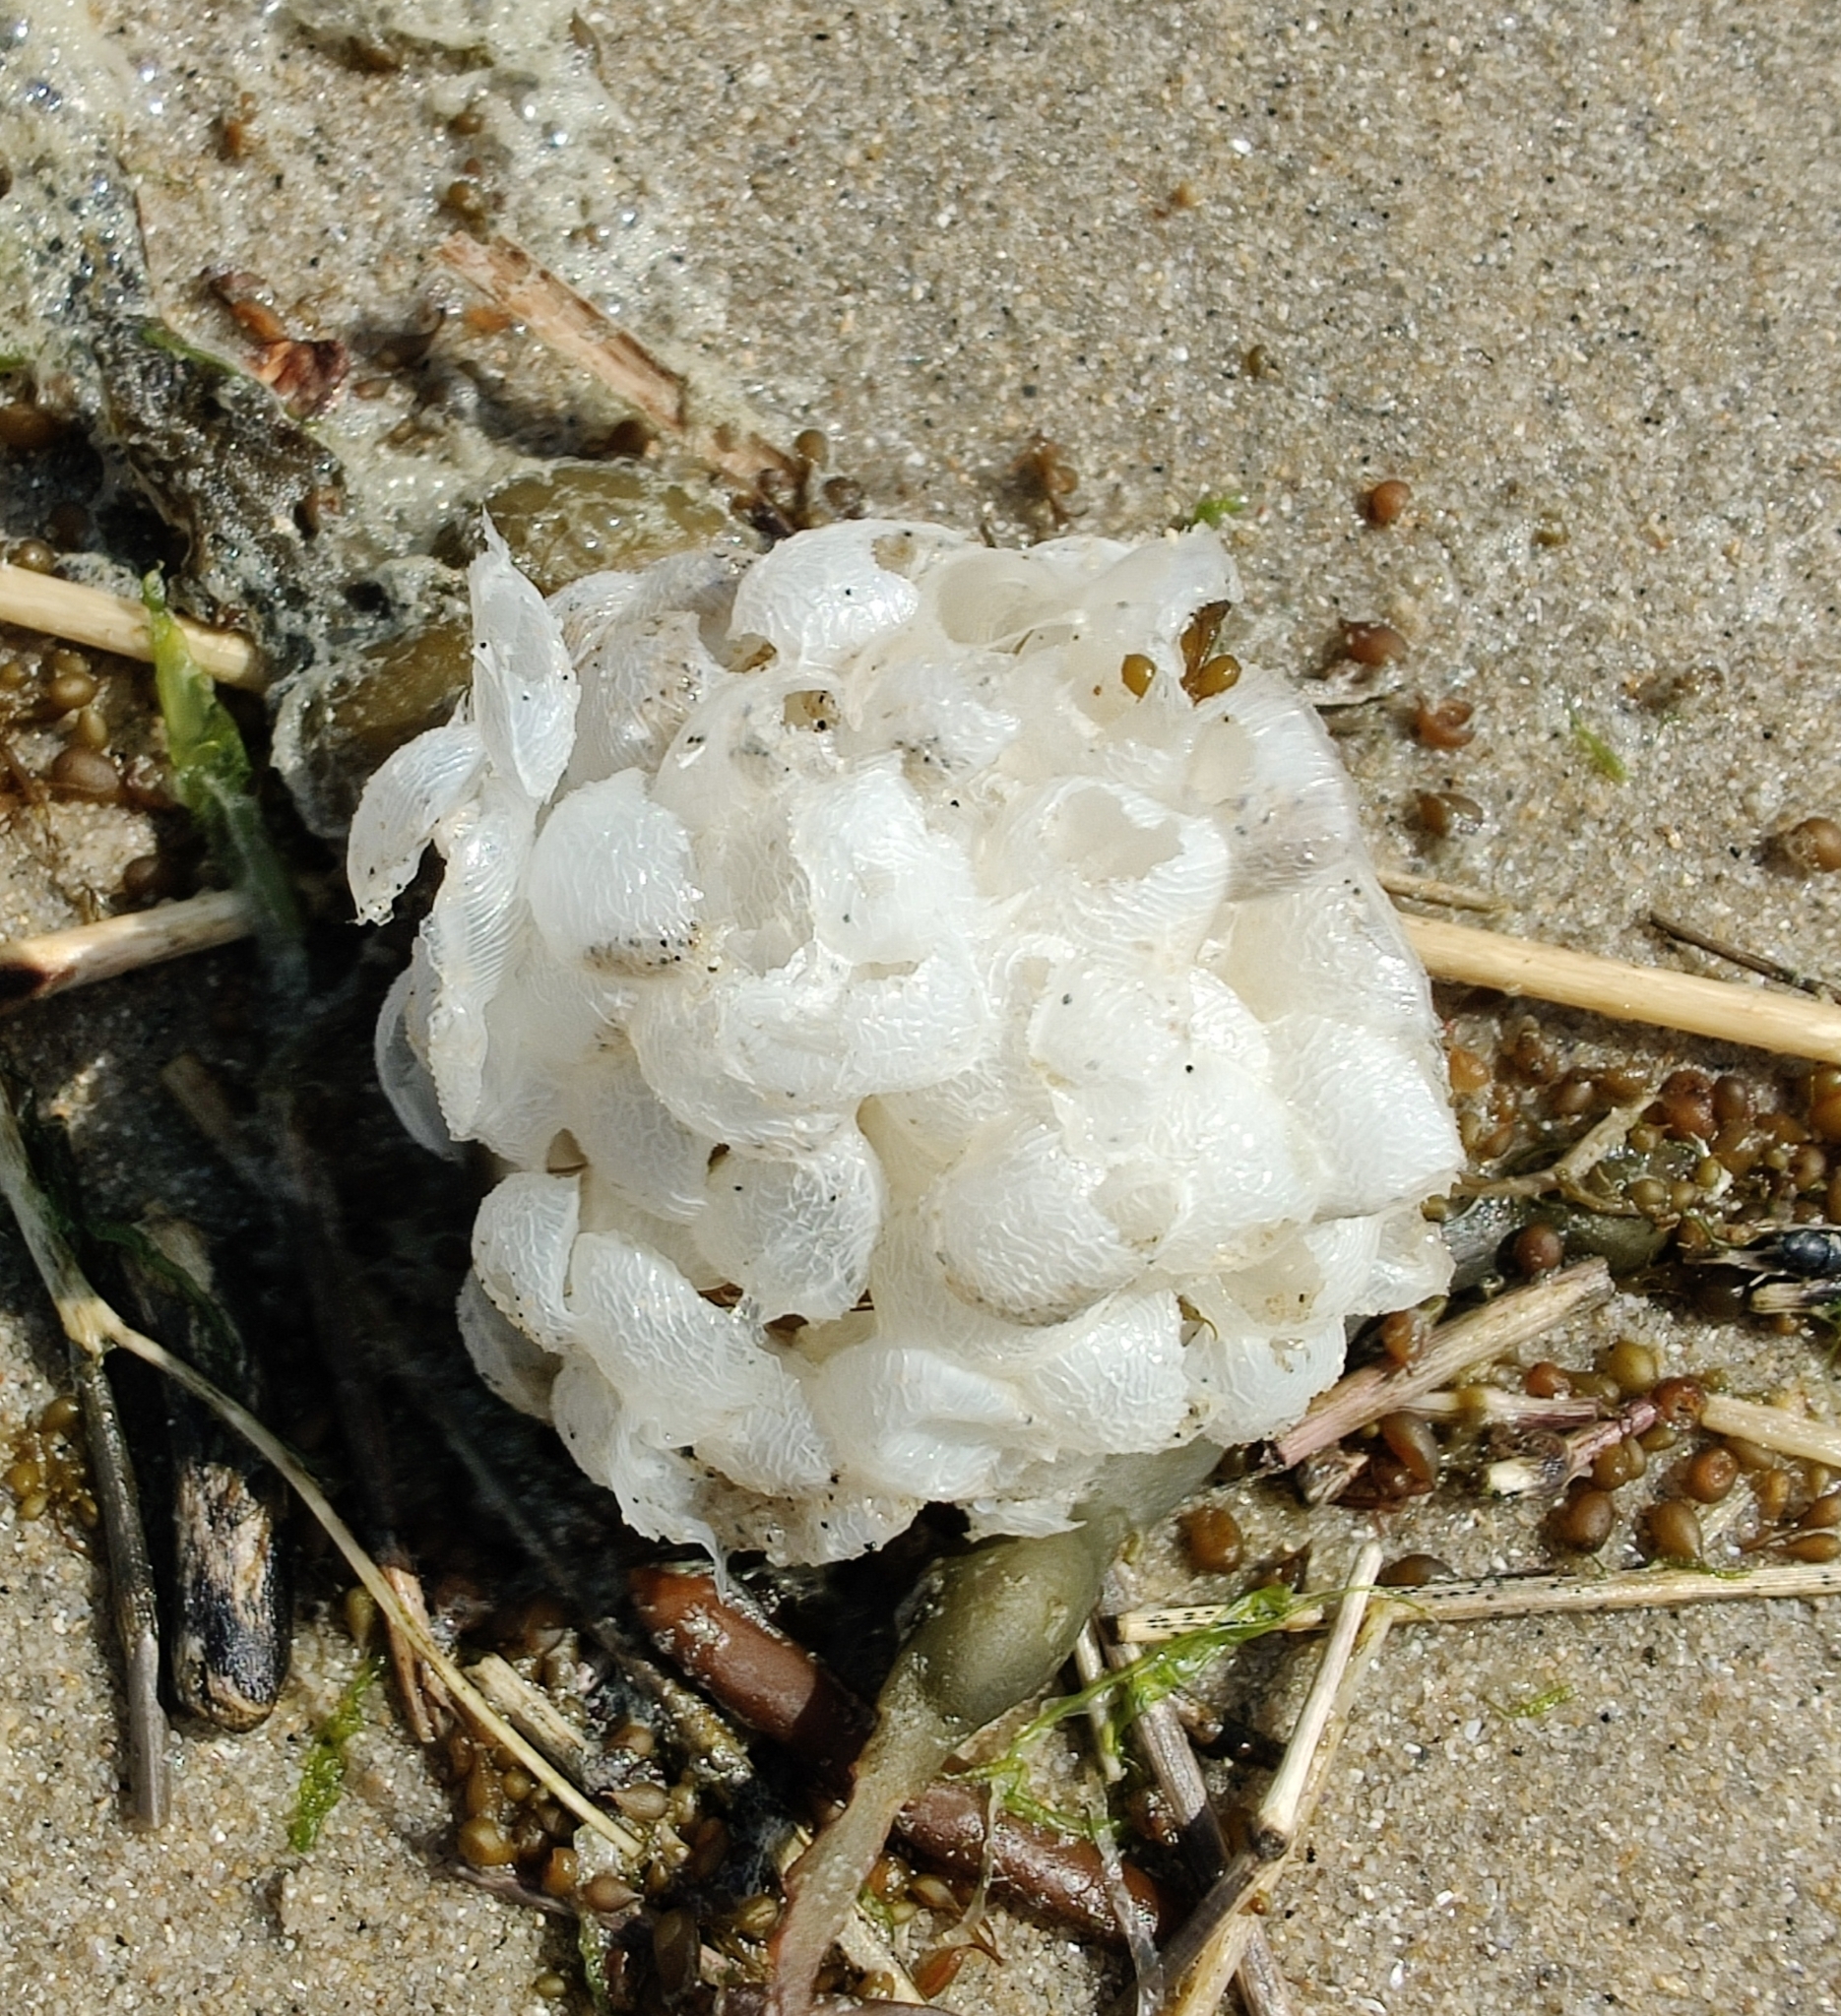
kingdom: Animalia
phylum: Mollusca
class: Gastropoda
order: Neogastropoda
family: Buccinidae
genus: Buccinum
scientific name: Buccinum undatum
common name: Common whelk
